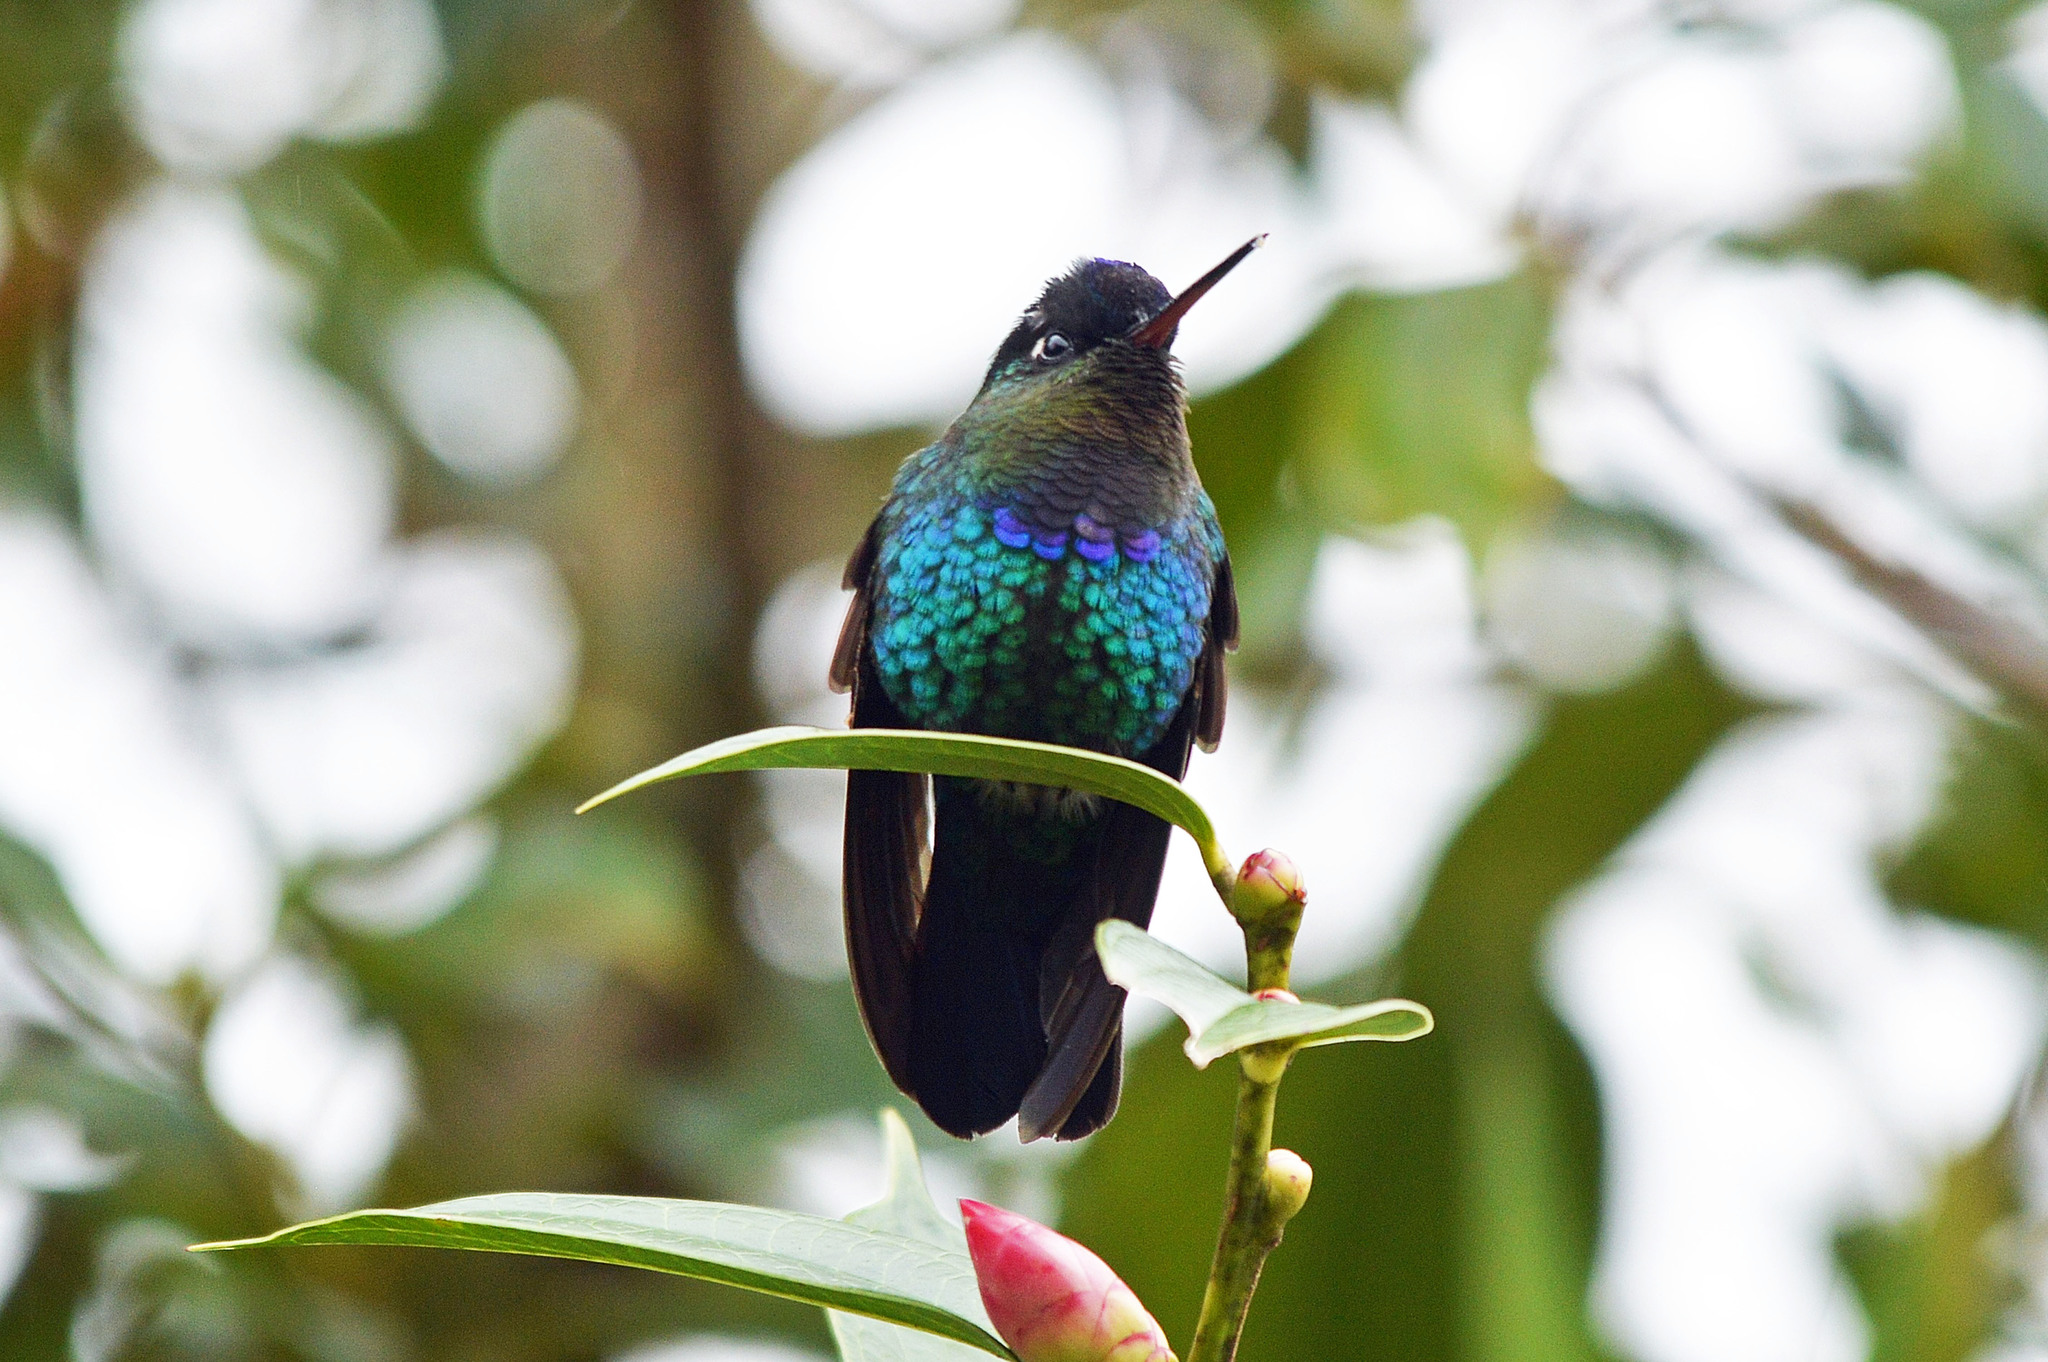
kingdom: Animalia
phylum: Chordata
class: Aves
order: Apodiformes
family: Trochilidae
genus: Panterpe
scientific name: Panterpe insignis
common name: Fiery-throated hummingbird
